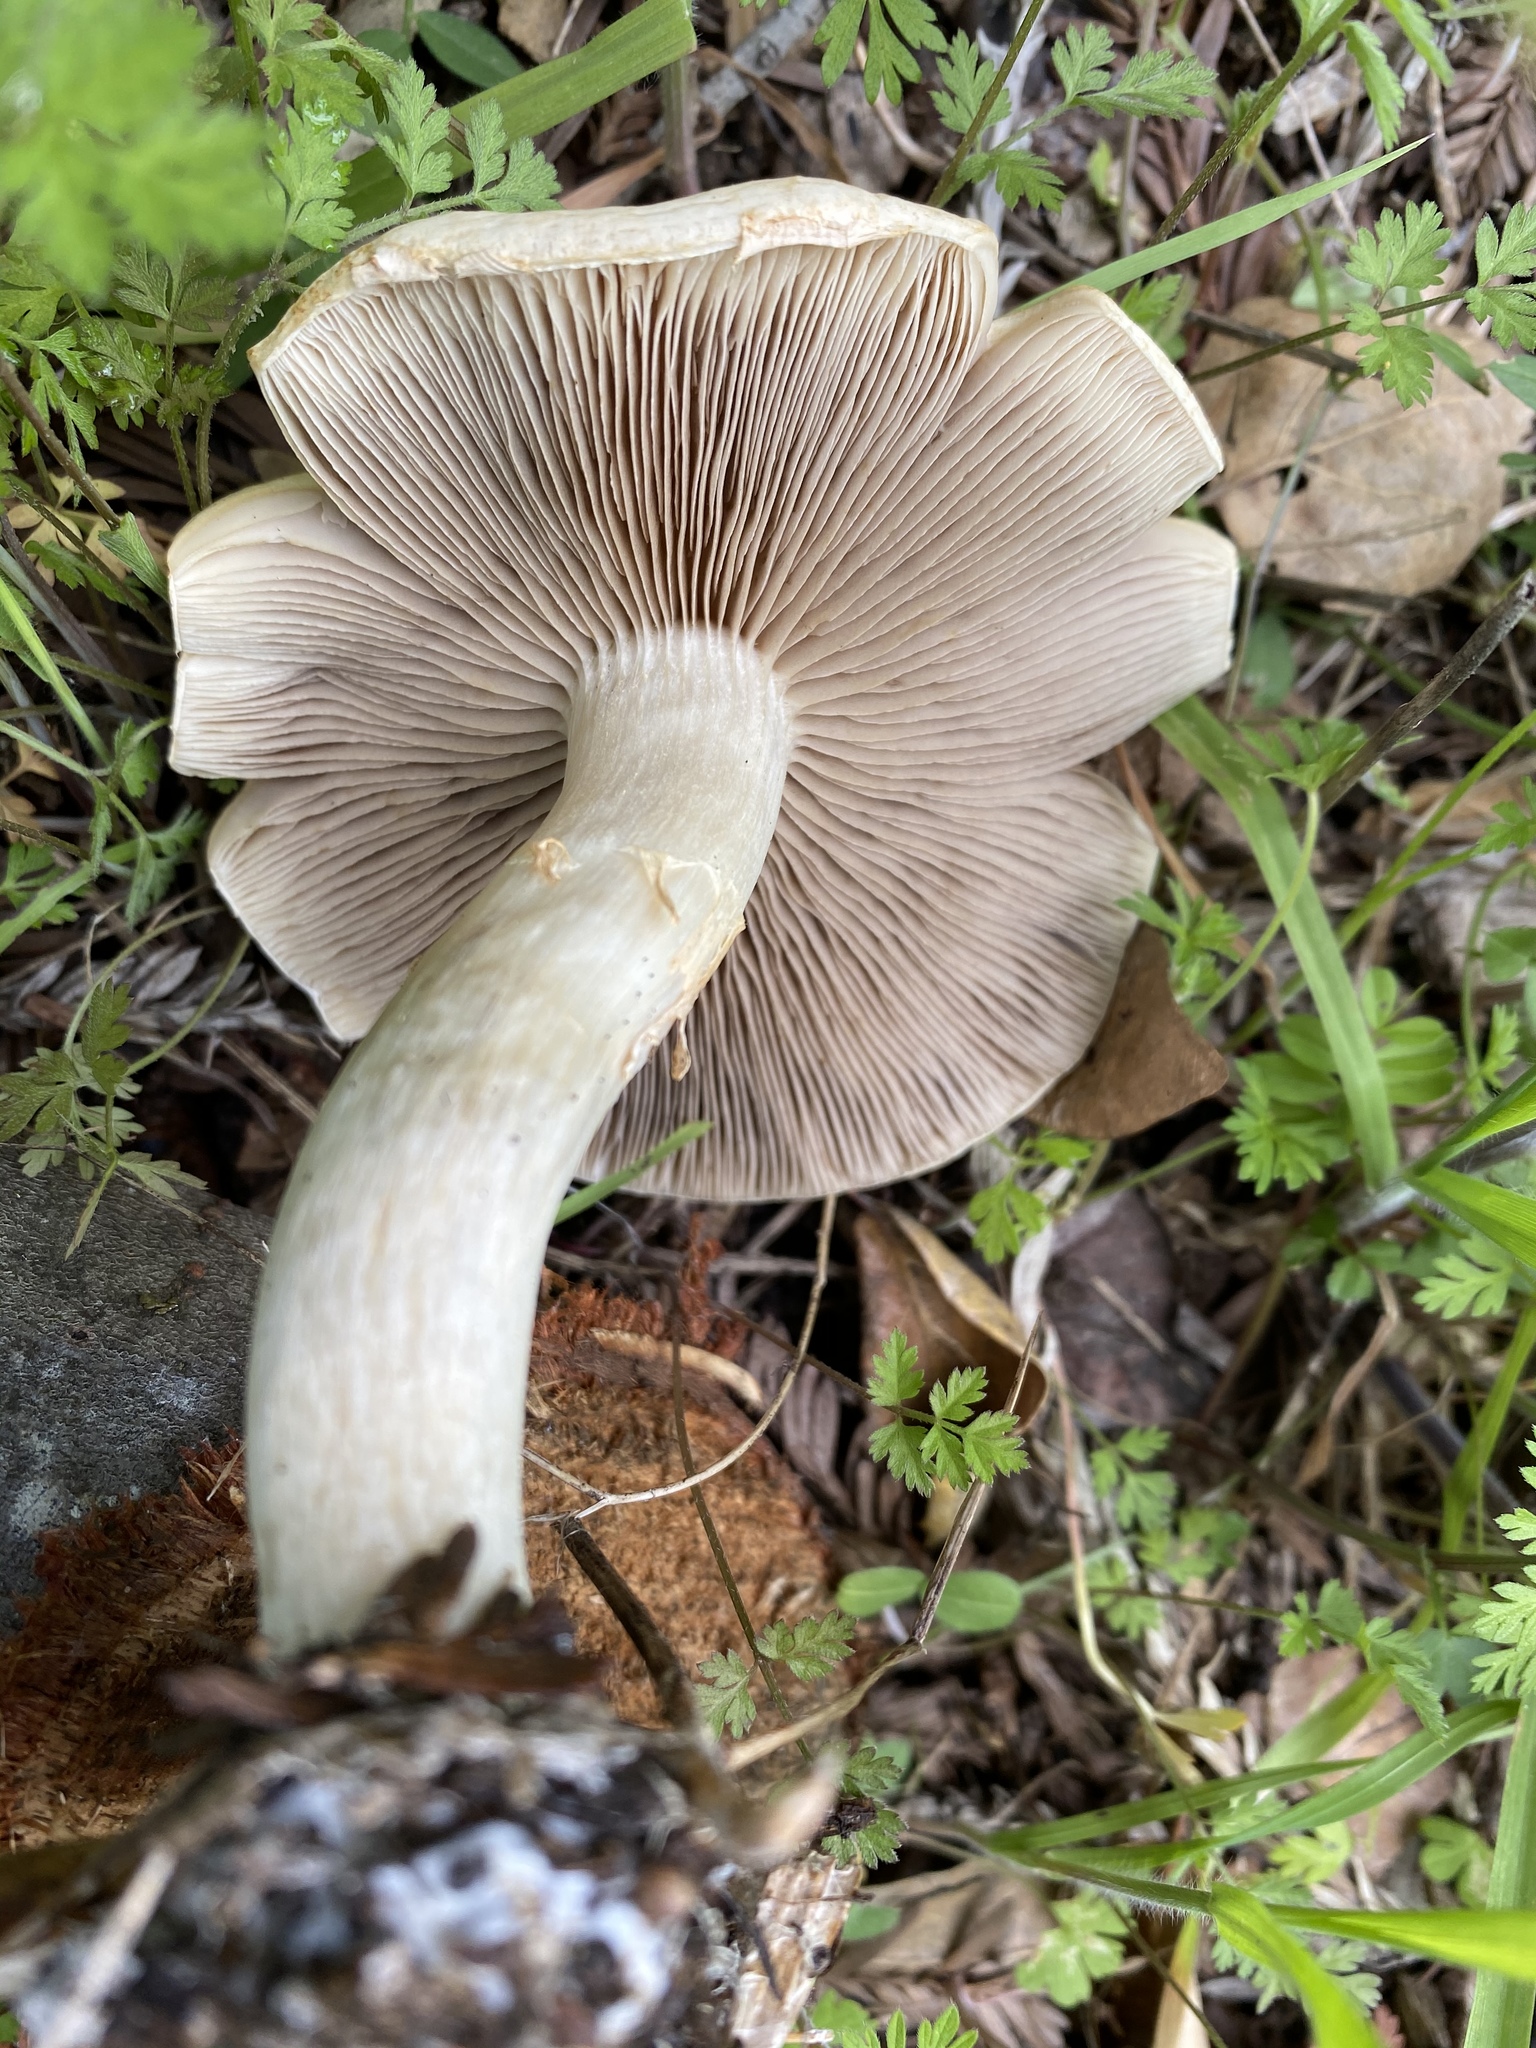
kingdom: Fungi
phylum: Basidiomycota
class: Agaricomycetes
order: Agaricales
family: Strophariaceae
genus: Agrocybe
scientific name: Agrocybe praecox
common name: Spring fieldcap
